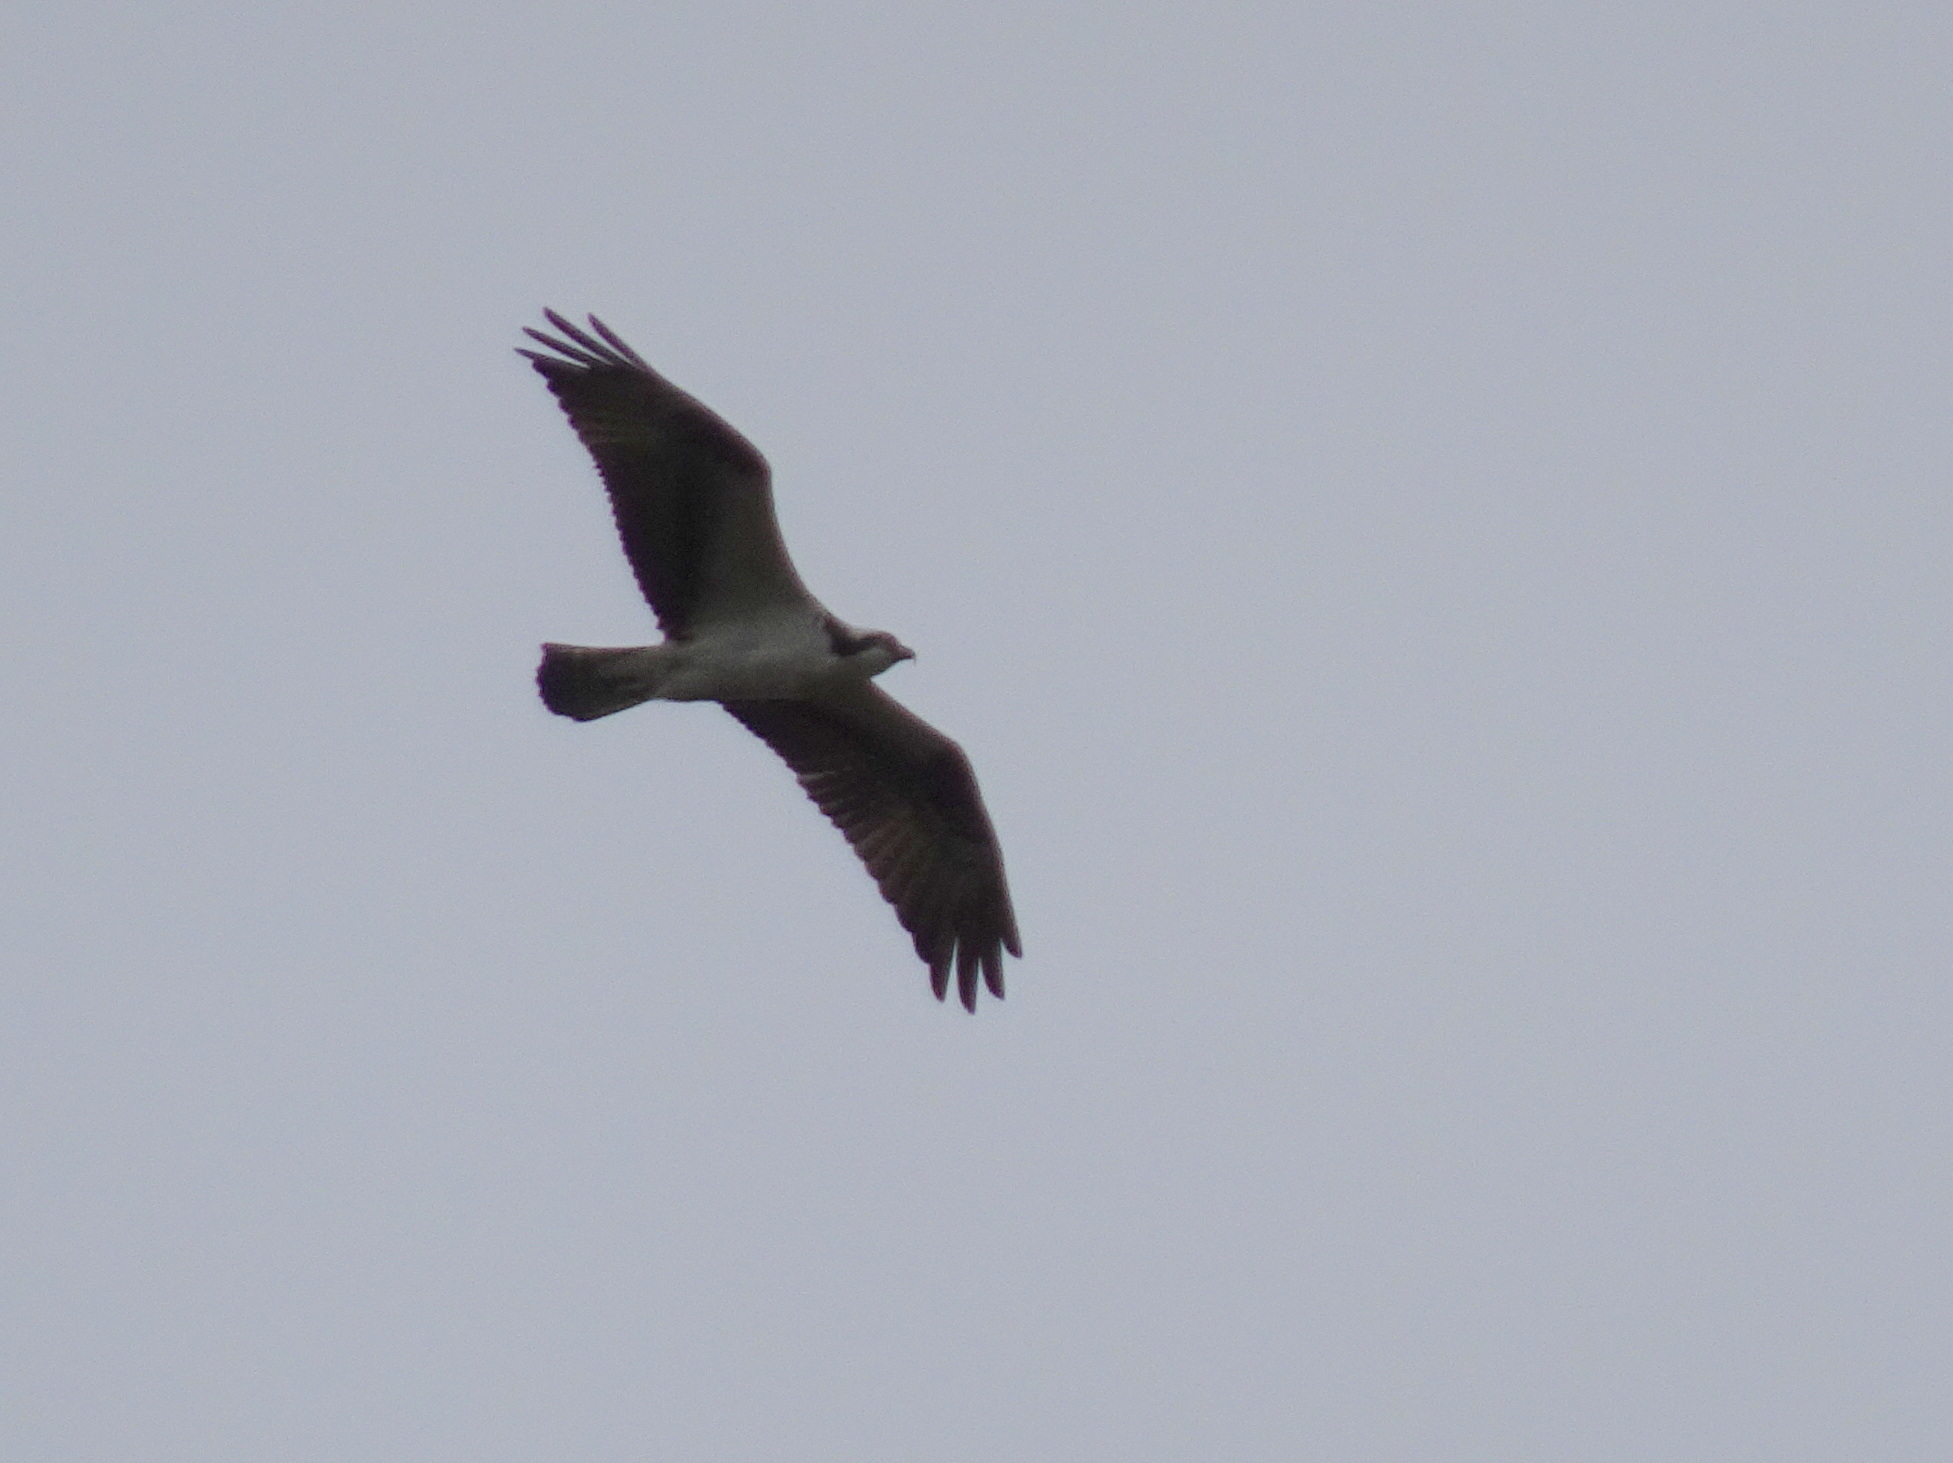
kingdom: Animalia
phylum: Chordata
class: Aves
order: Accipitriformes
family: Pandionidae
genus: Pandion
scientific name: Pandion haliaetus
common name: Osprey
